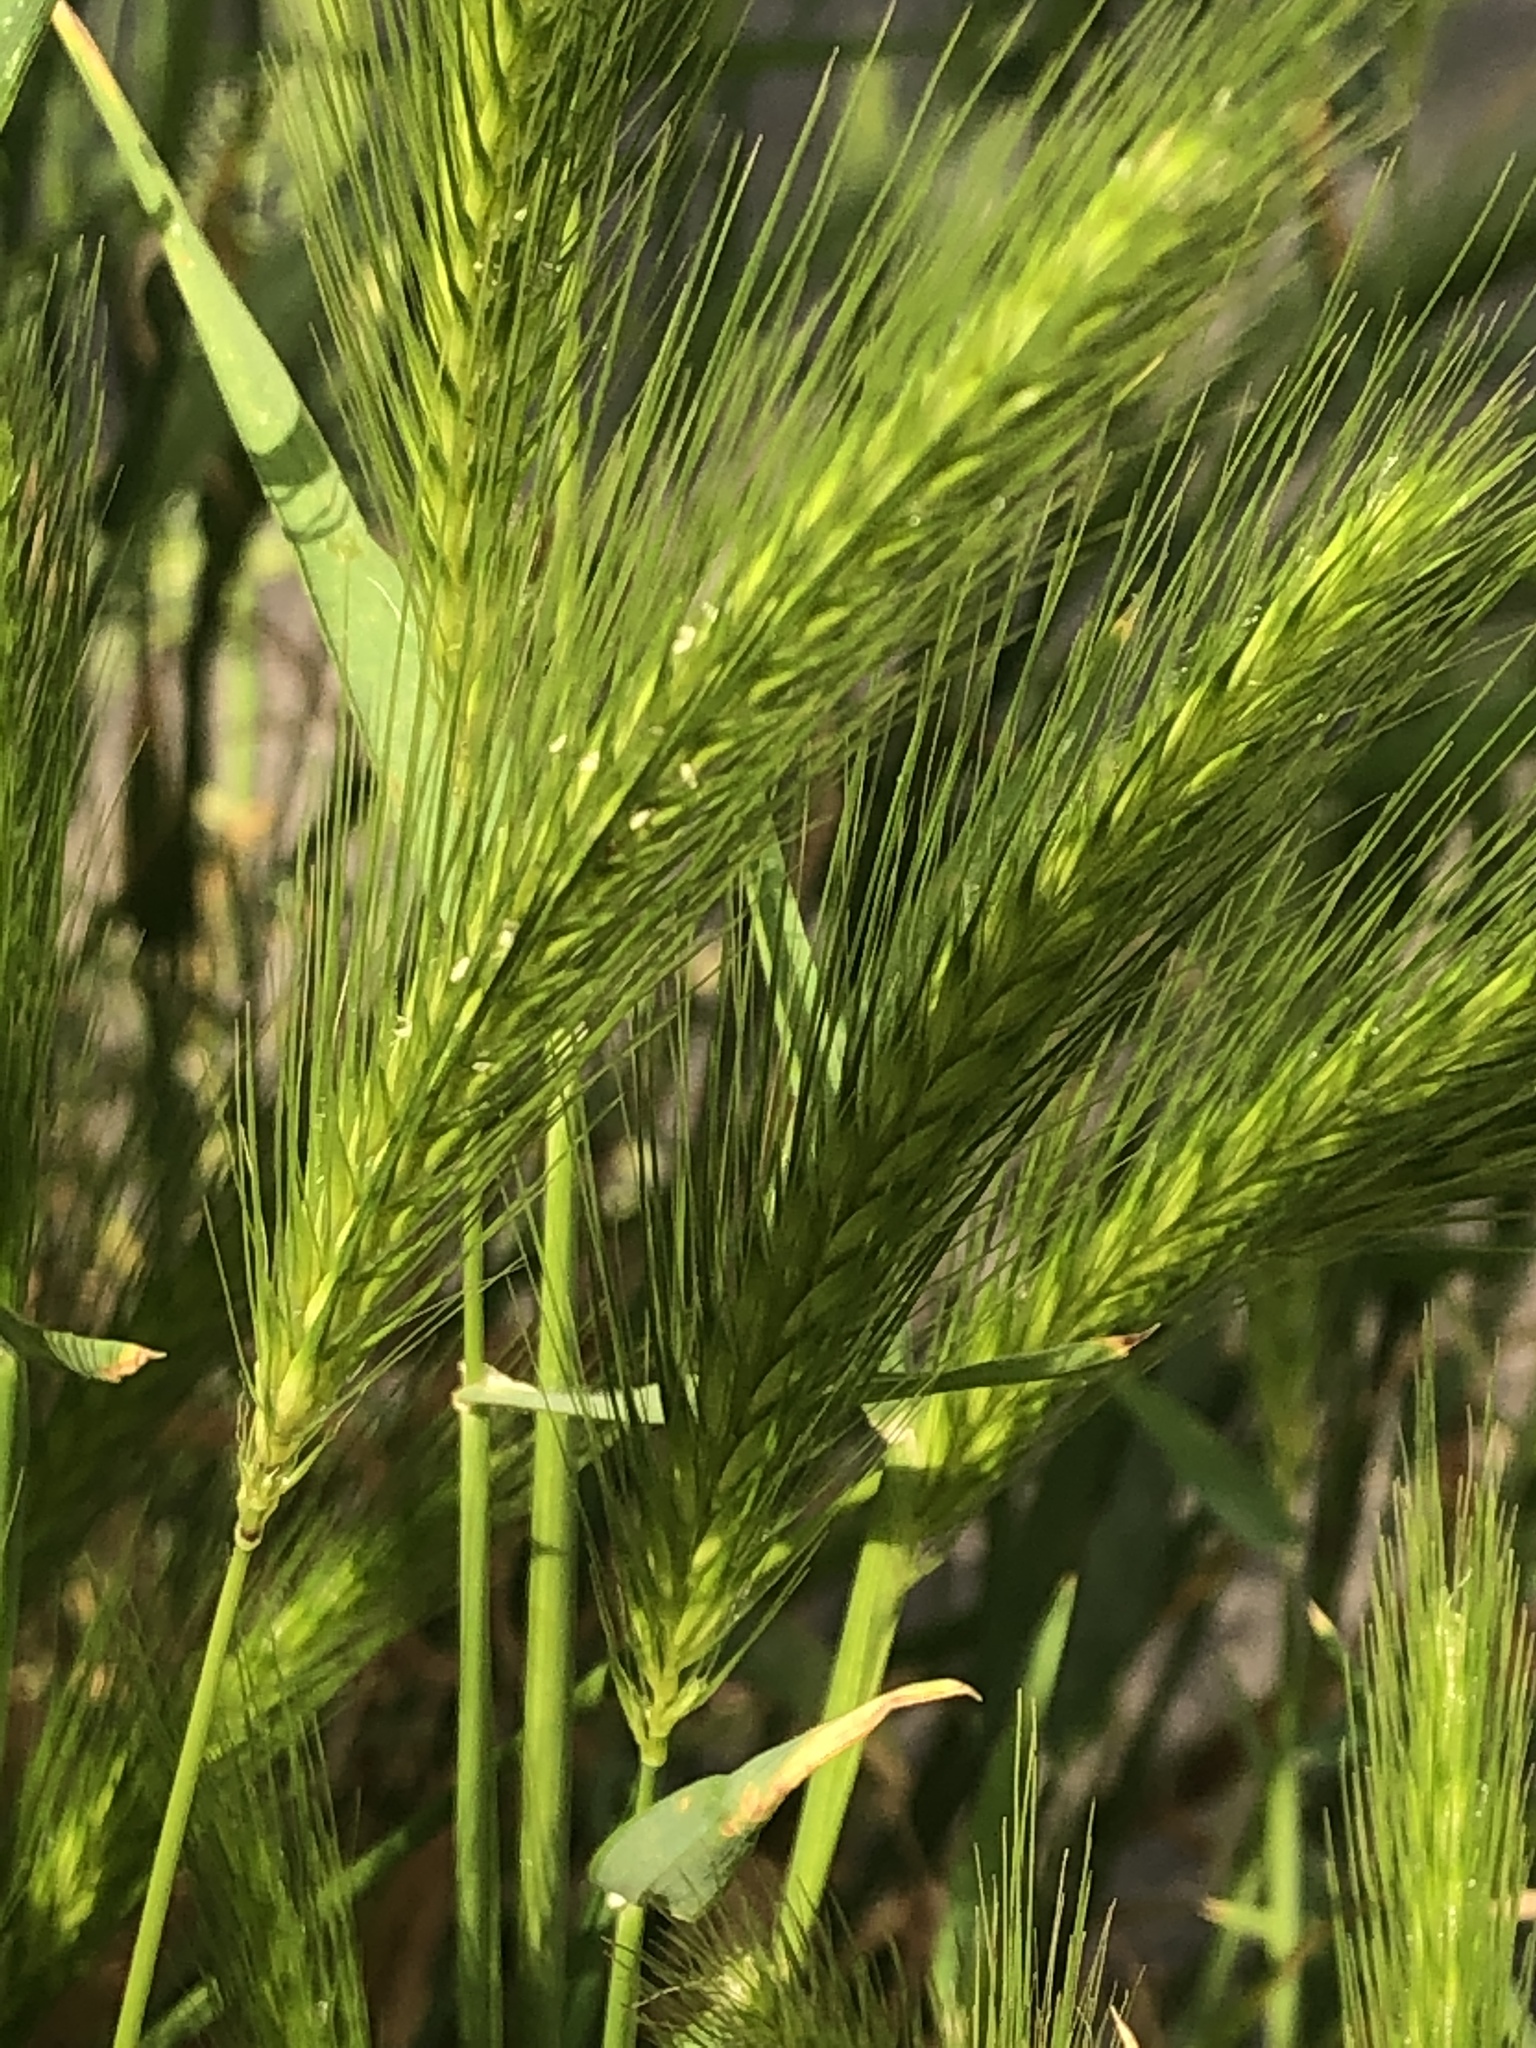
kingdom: Plantae
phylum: Tracheophyta
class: Liliopsida
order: Poales
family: Poaceae
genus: Hordeum
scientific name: Hordeum murinum
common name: Wall barley
